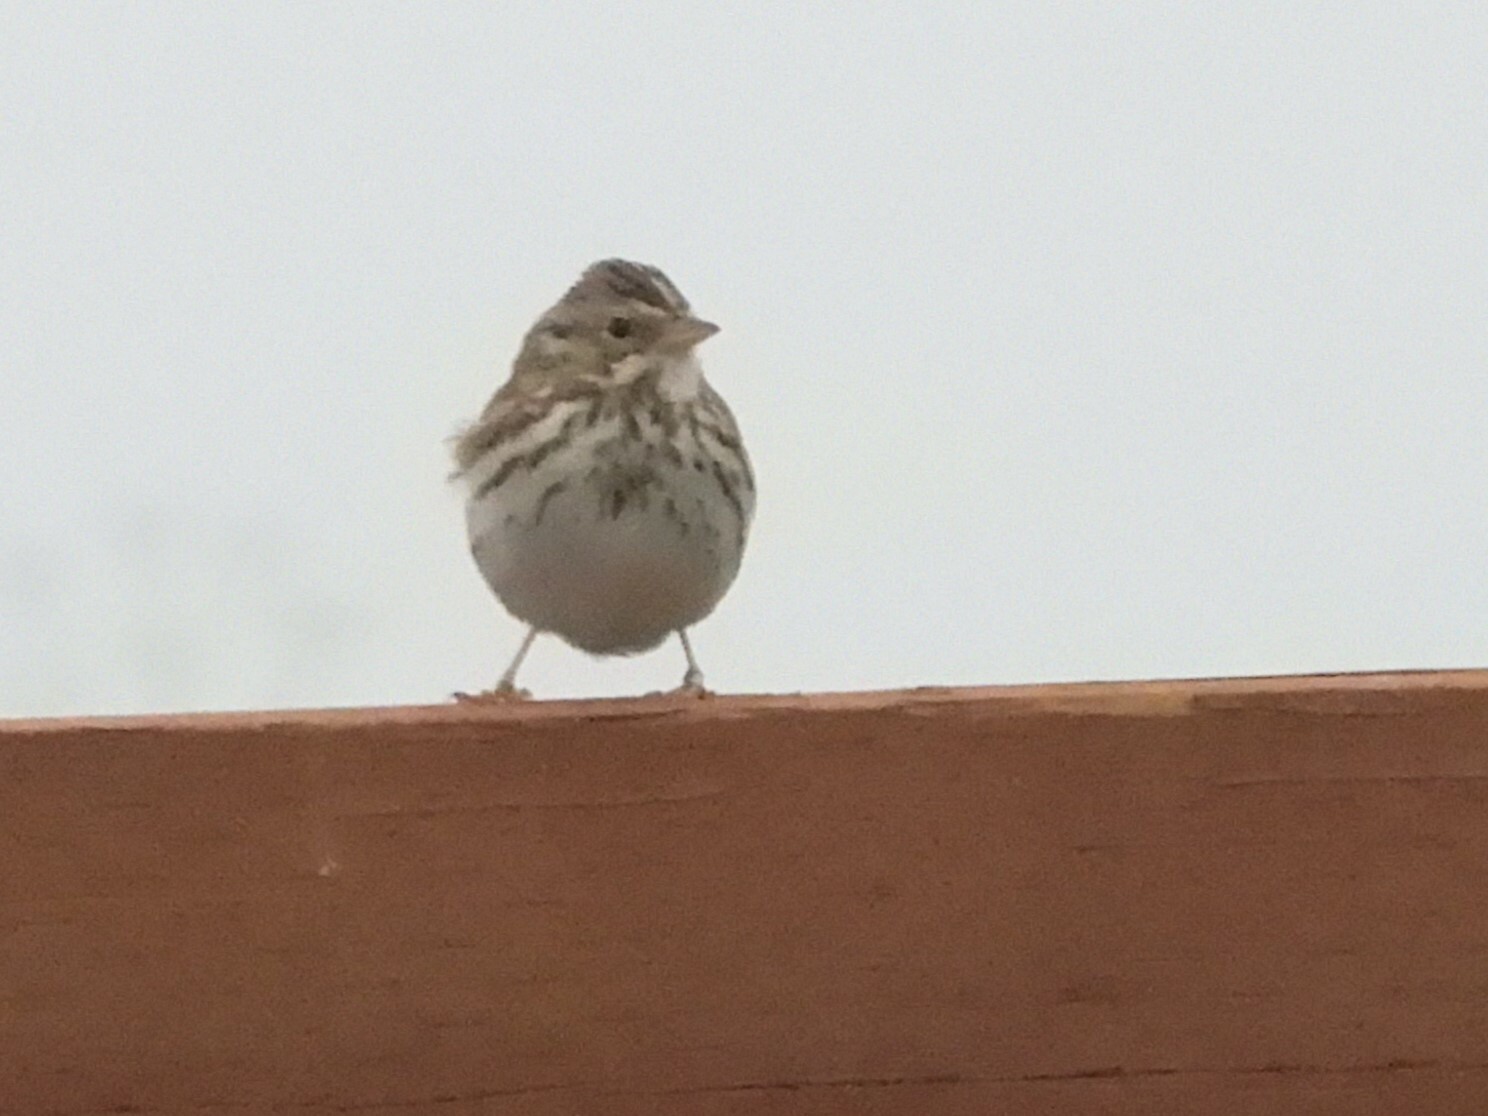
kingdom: Animalia
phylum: Chordata
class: Aves
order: Passeriformes
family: Passerellidae
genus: Passerculus
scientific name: Passerculus sandwichensis
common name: Savannah sparrow
